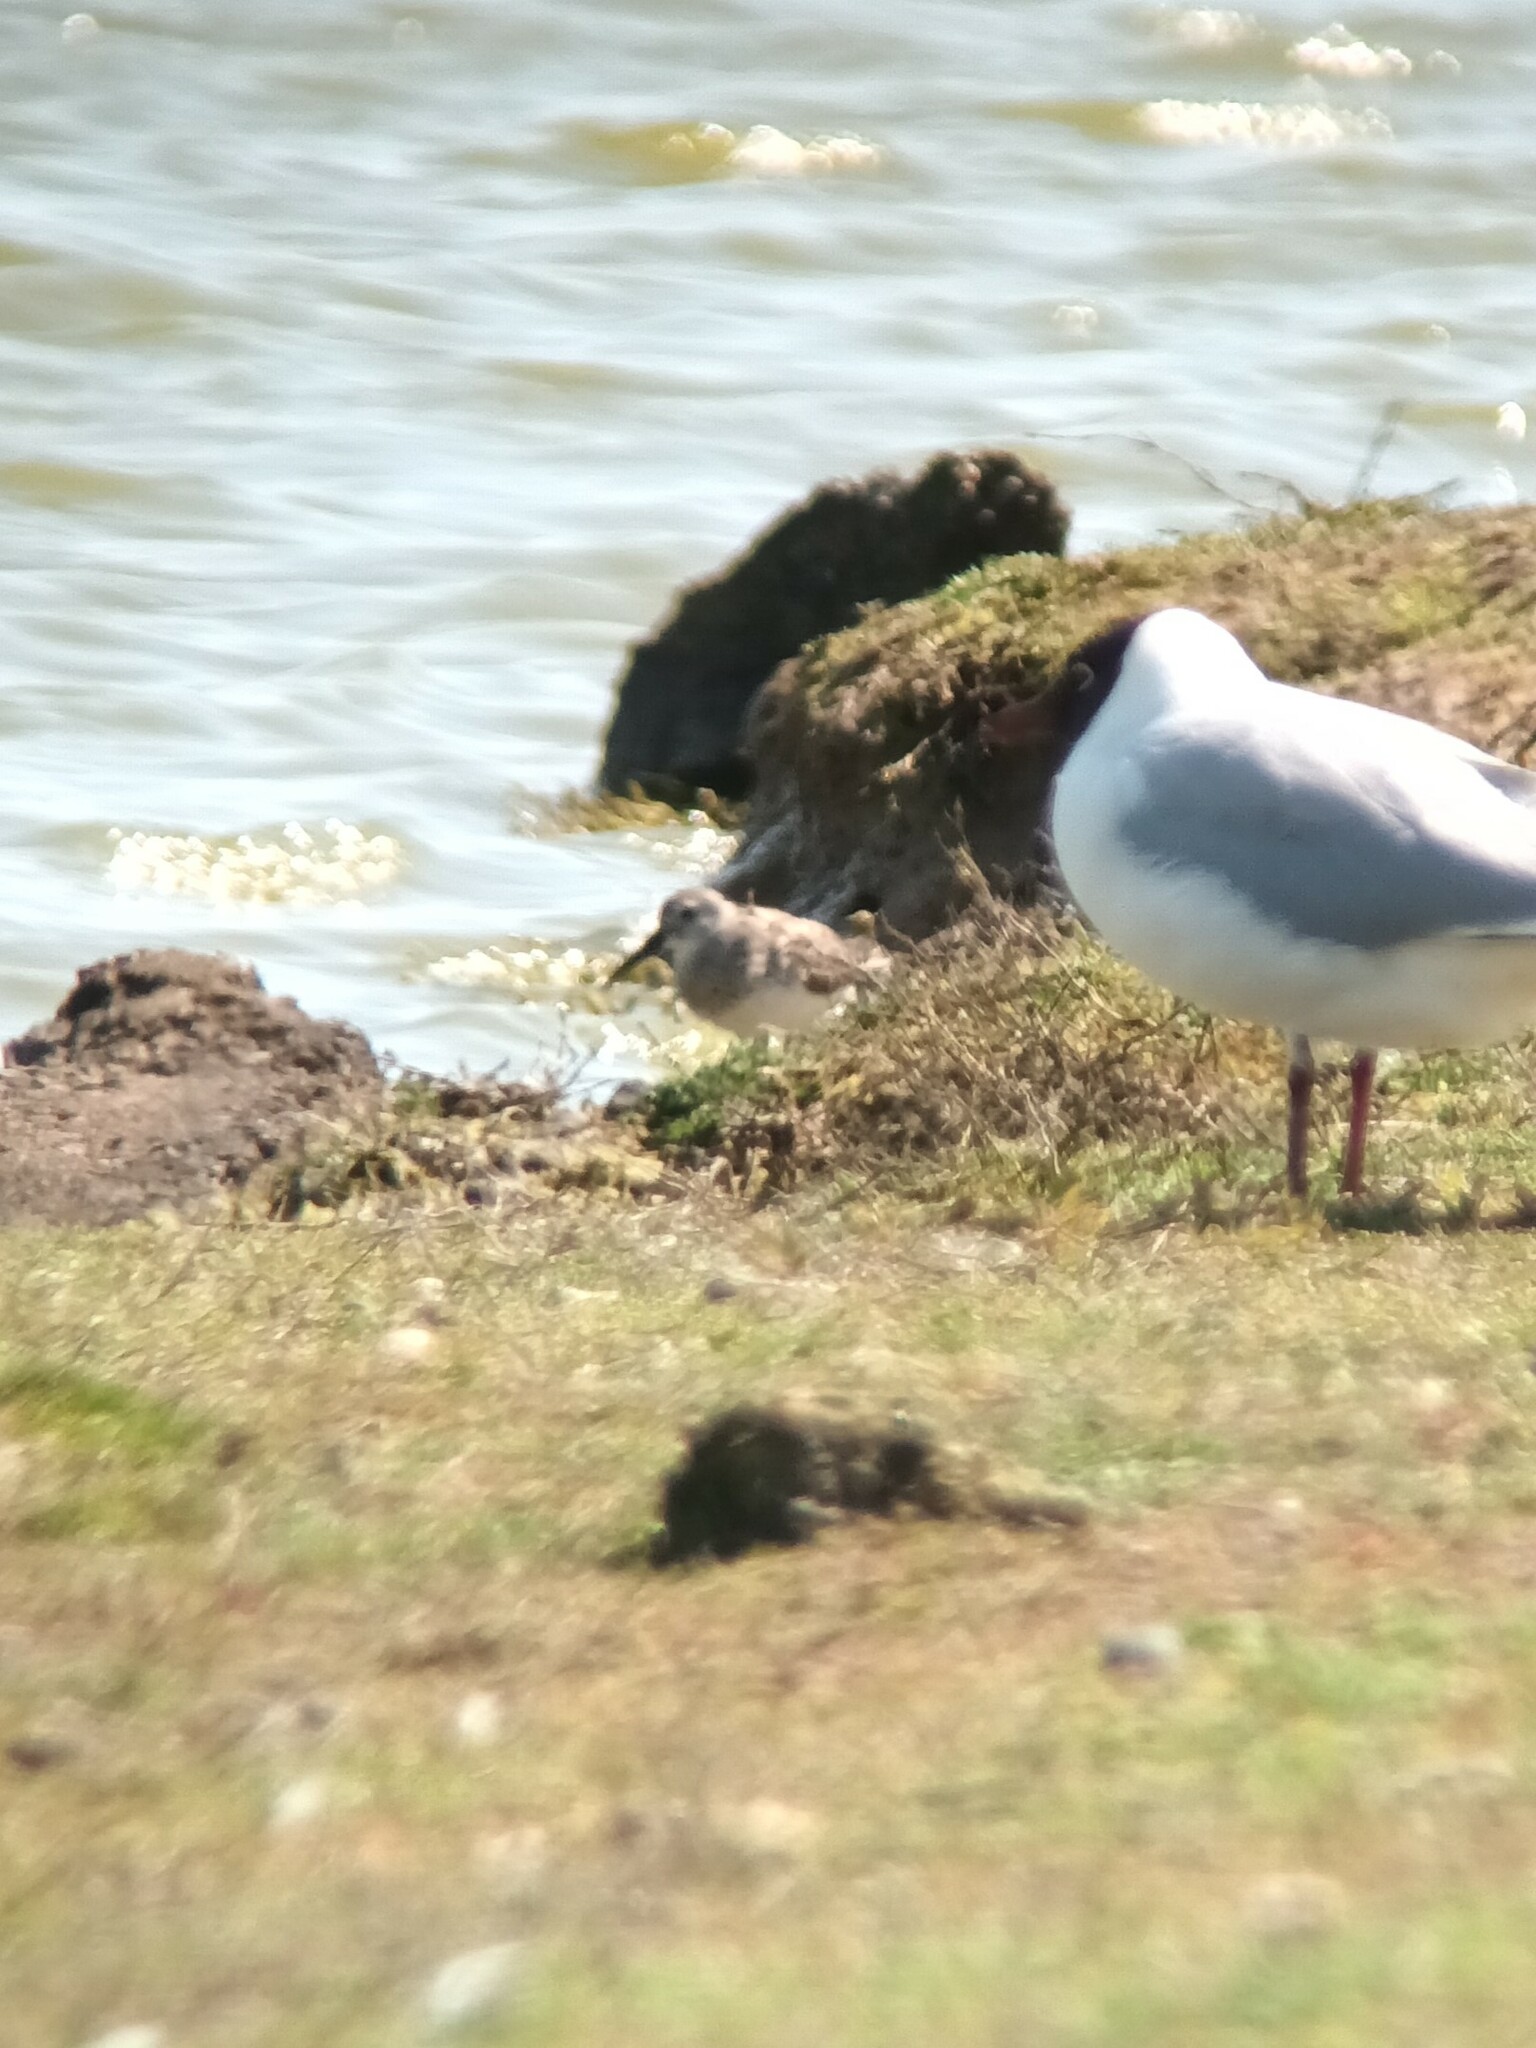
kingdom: Animalia
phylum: Chordata
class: Aves
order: Charadriiformes
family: Scolopacidae
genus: Calidris
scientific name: Calidris alpina
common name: Dunlin
